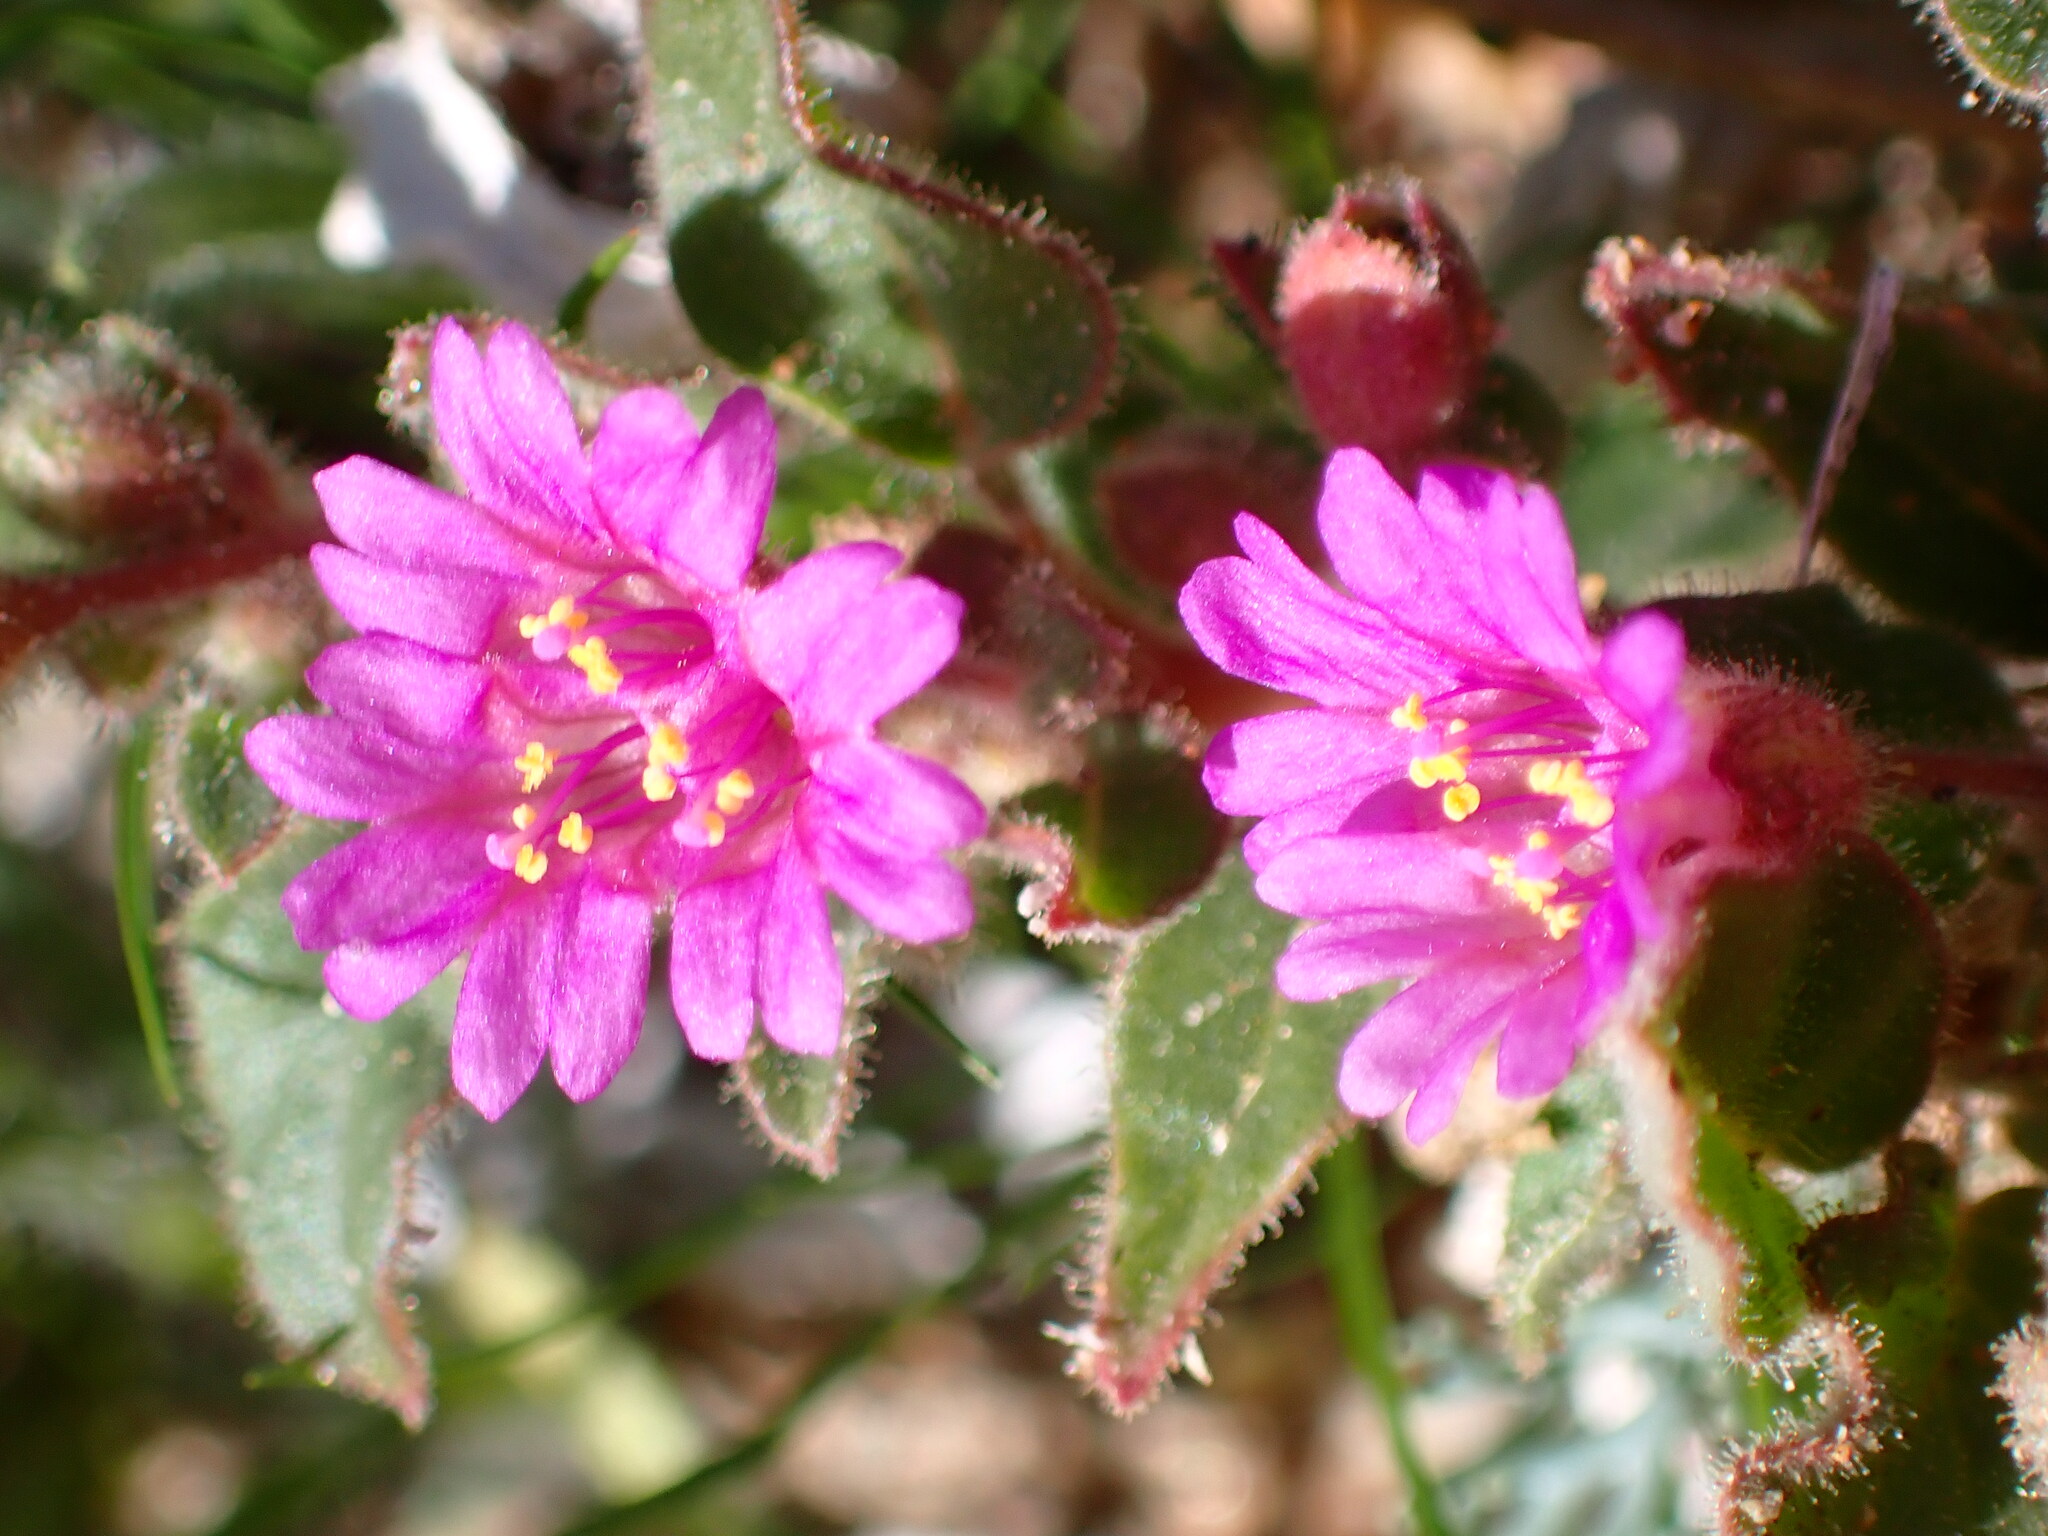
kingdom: Plantae
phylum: Tracheophyta
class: Magnoliopsida
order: Caryophyllales
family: Nyctaginaceae
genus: Allionia
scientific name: Allionia incarnata
